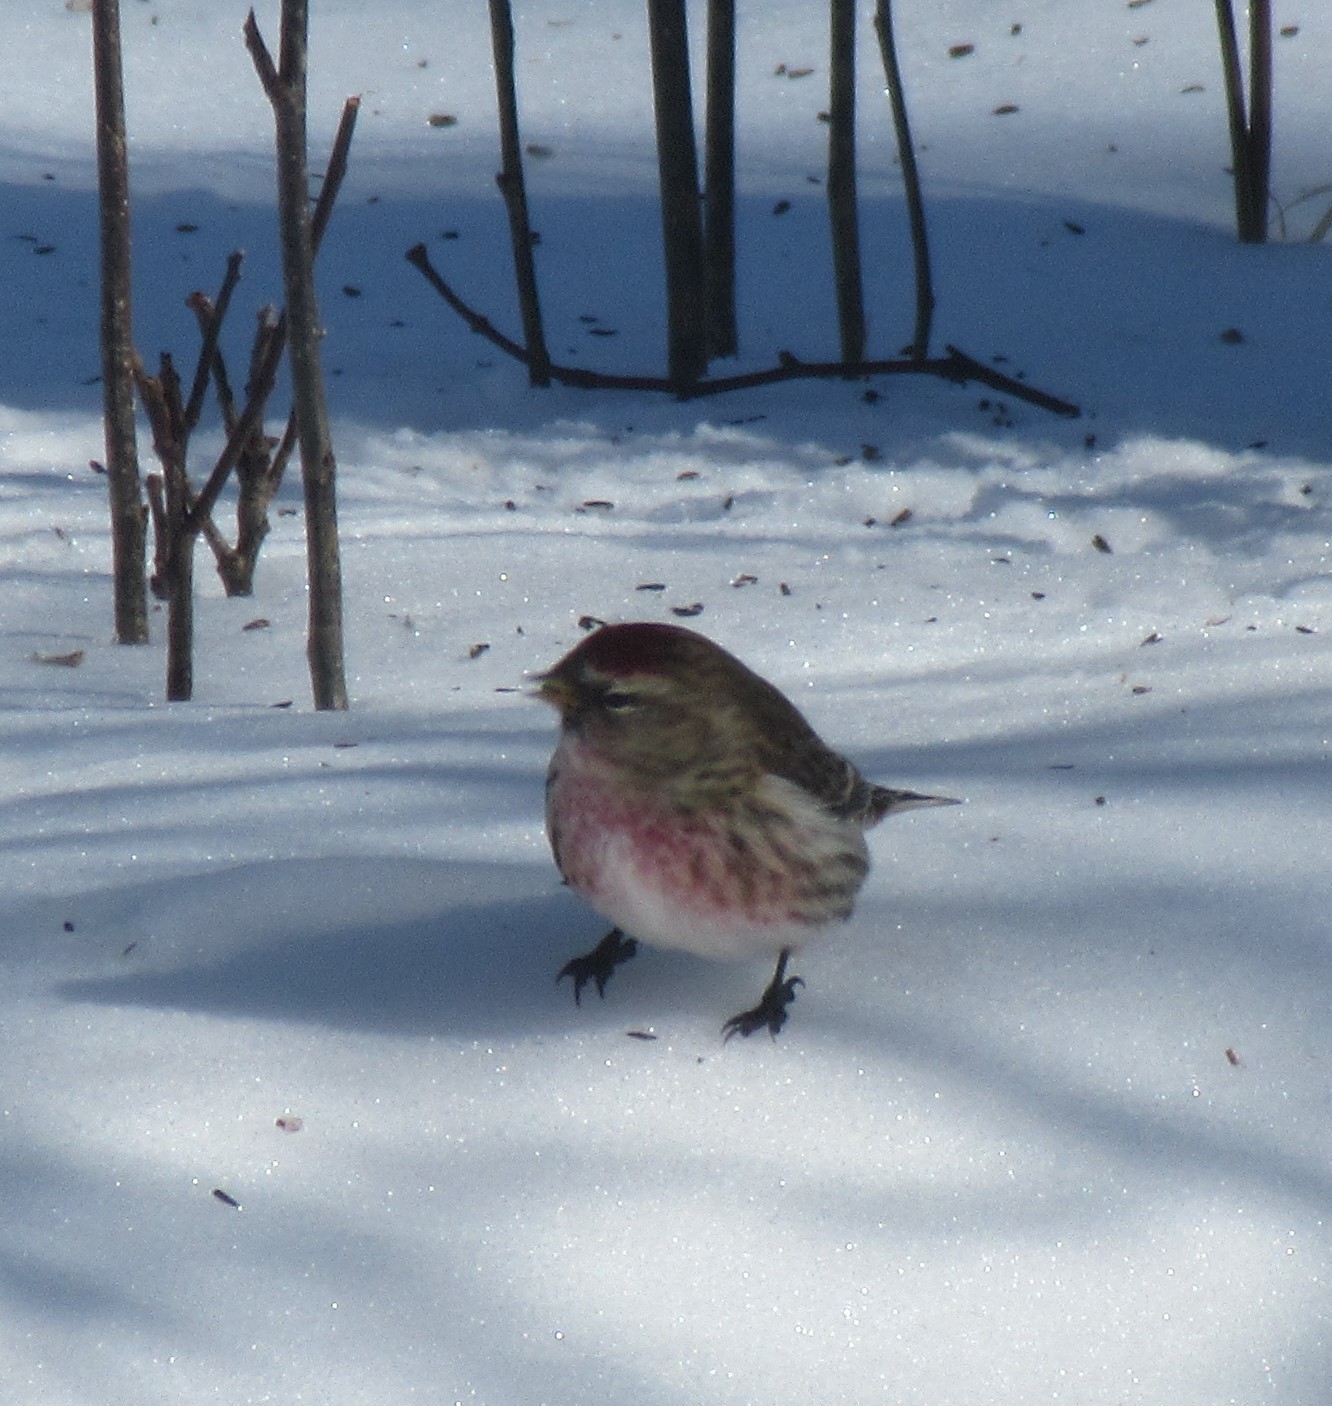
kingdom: Animalia
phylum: Chordata
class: Aves
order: Passeriformes
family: Fringillidae
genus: Acanthis
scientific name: Acanthis flammea
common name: Common redpoll
